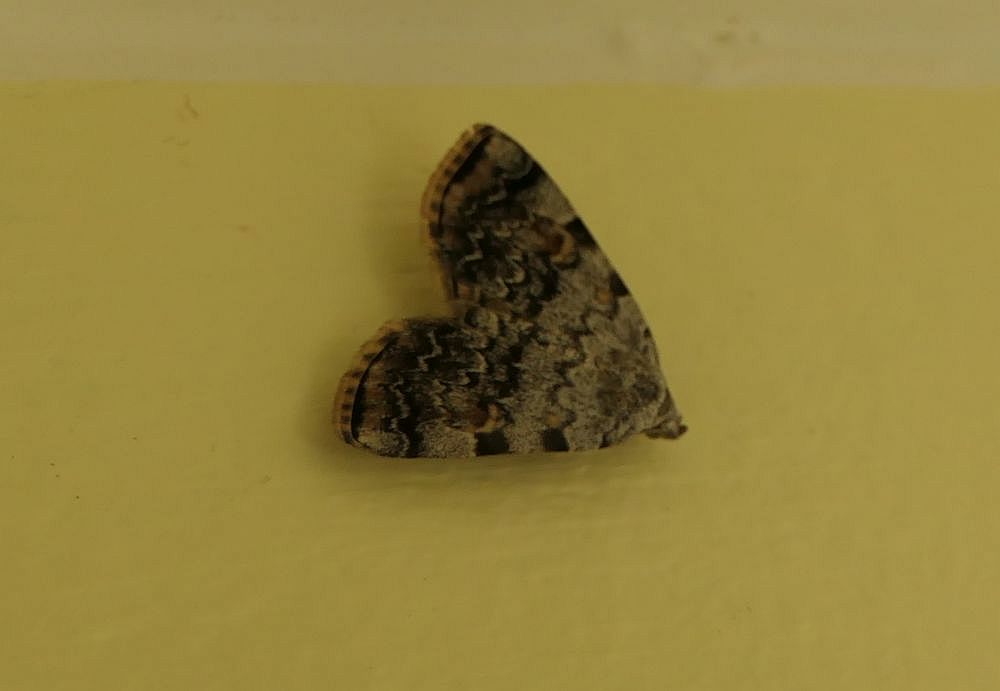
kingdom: Animalia
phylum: Arthropoda
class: Insecta
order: Lepidoptera
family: Erebidae
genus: Idia
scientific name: Idia americalis
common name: American idia moth
